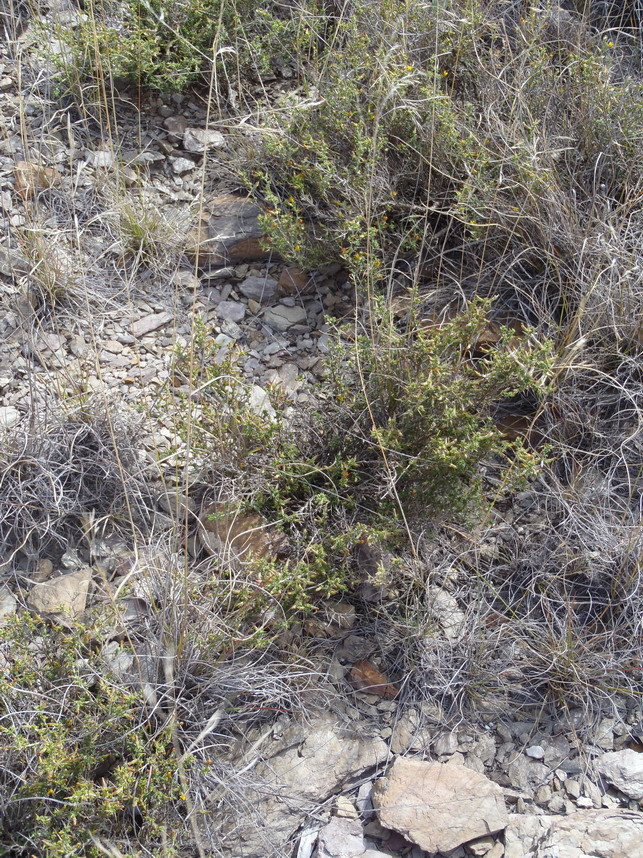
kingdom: Plantae
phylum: Tracheophyta
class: Magnoliopsida
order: Fabales
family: Fabaceae
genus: Melolobium
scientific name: Melolobium microphyllum
